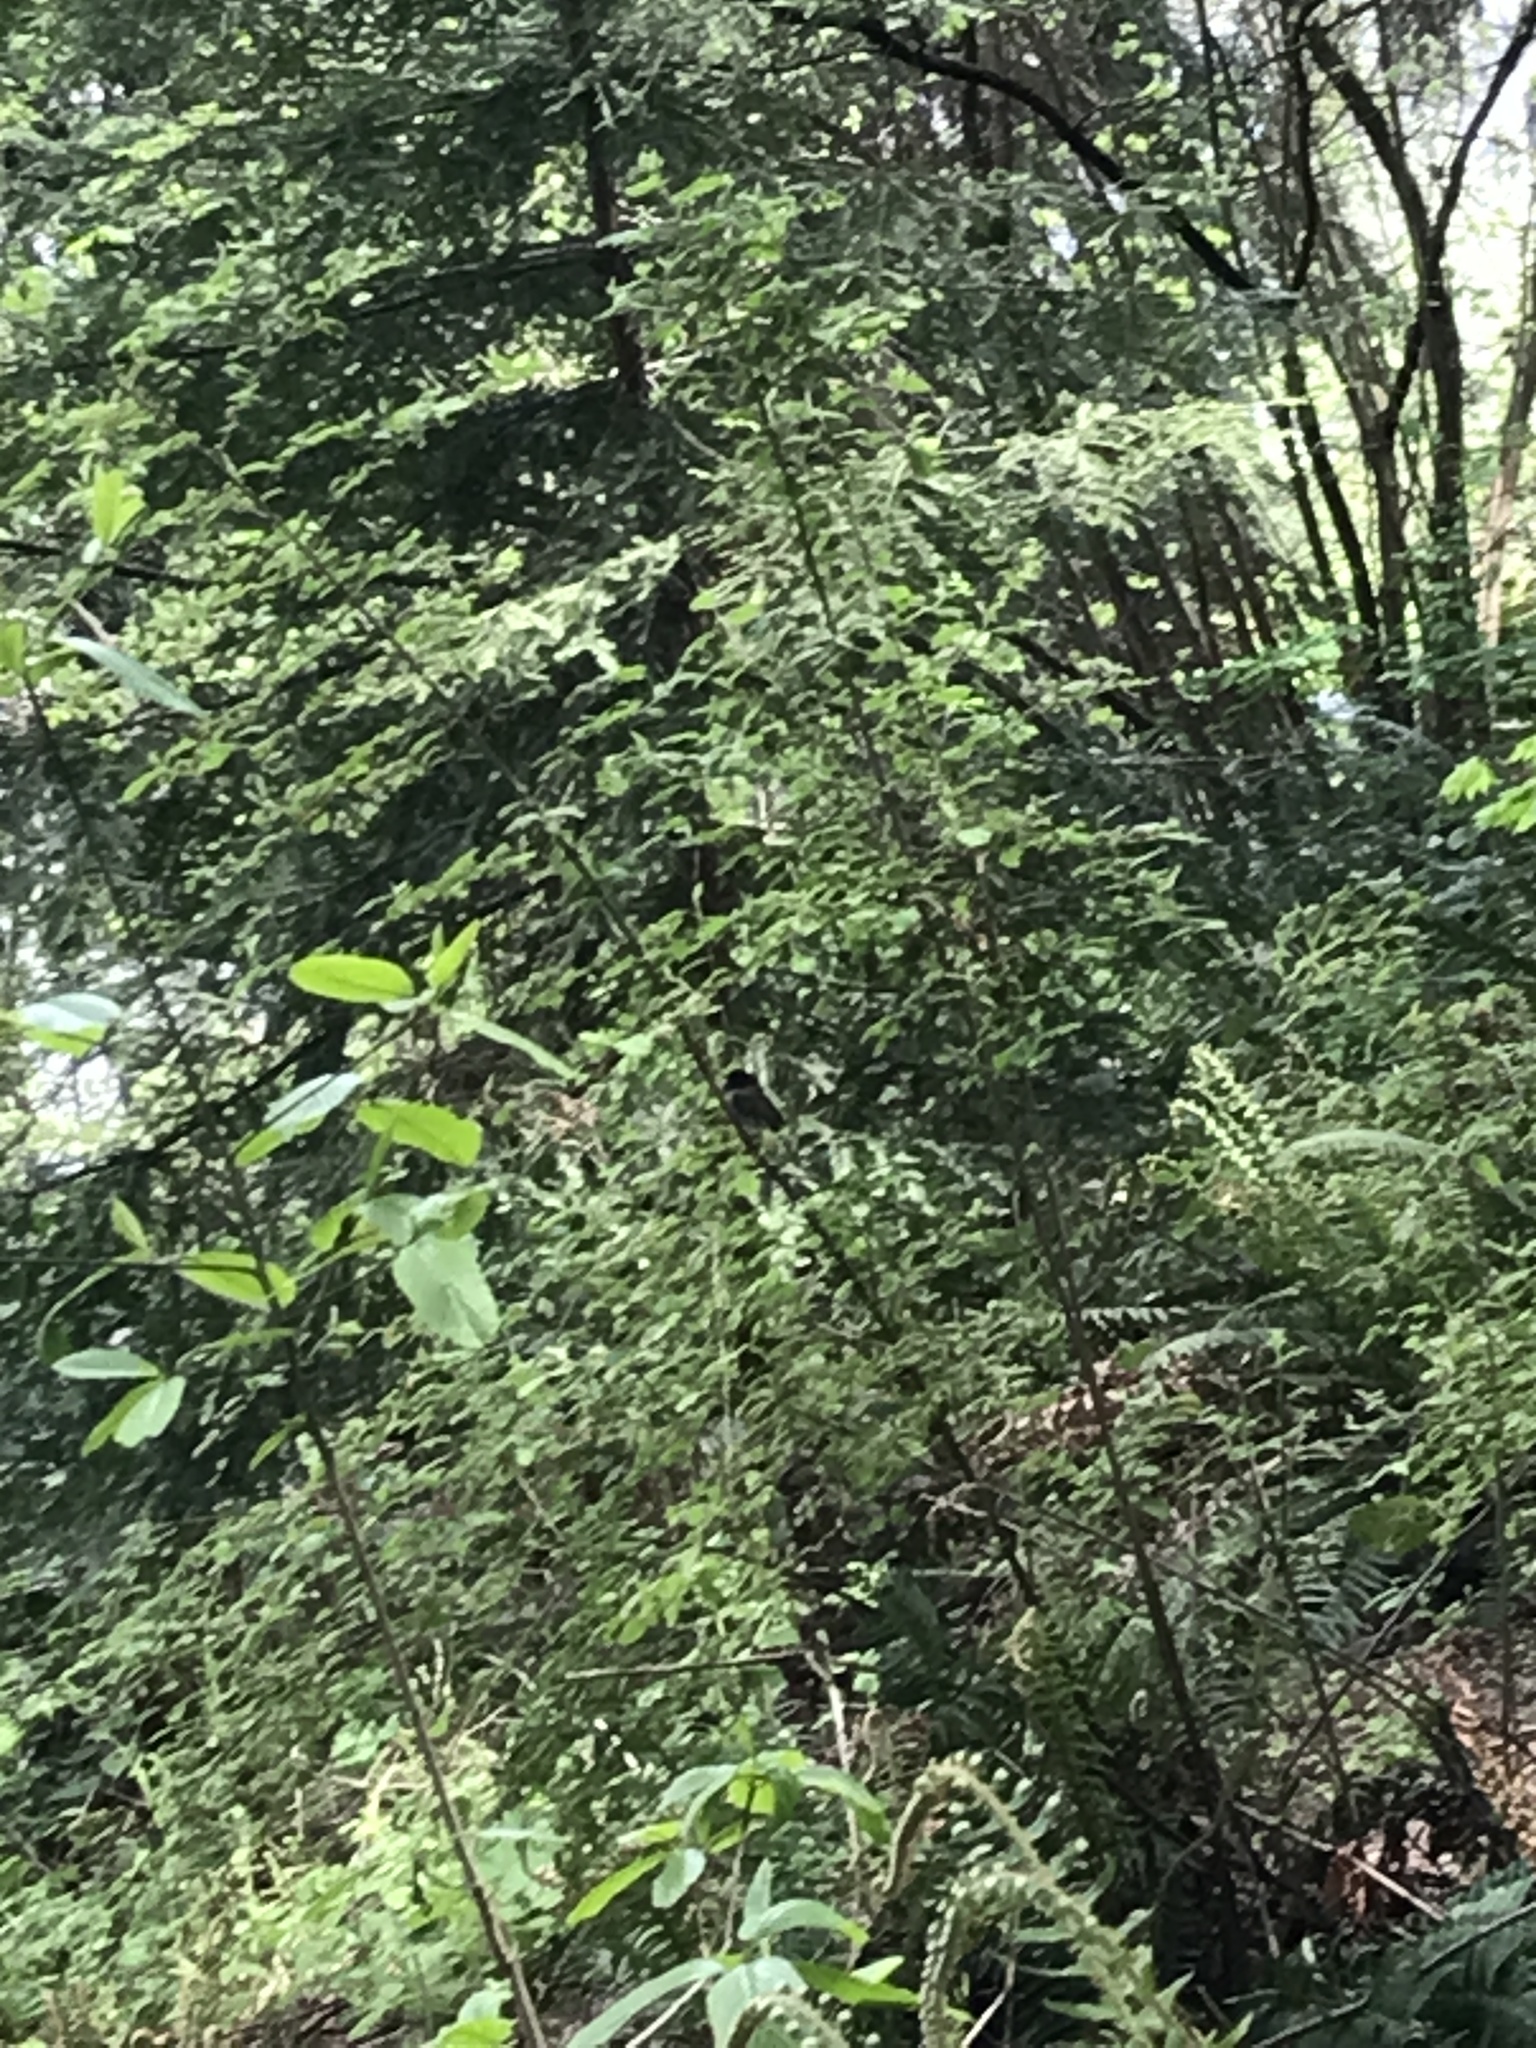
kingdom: Animalia
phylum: Chordata
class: Aves
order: Passeriformes
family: Passerellidae
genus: Junco
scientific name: Junco hyemalis
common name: Dark-eyed junco
